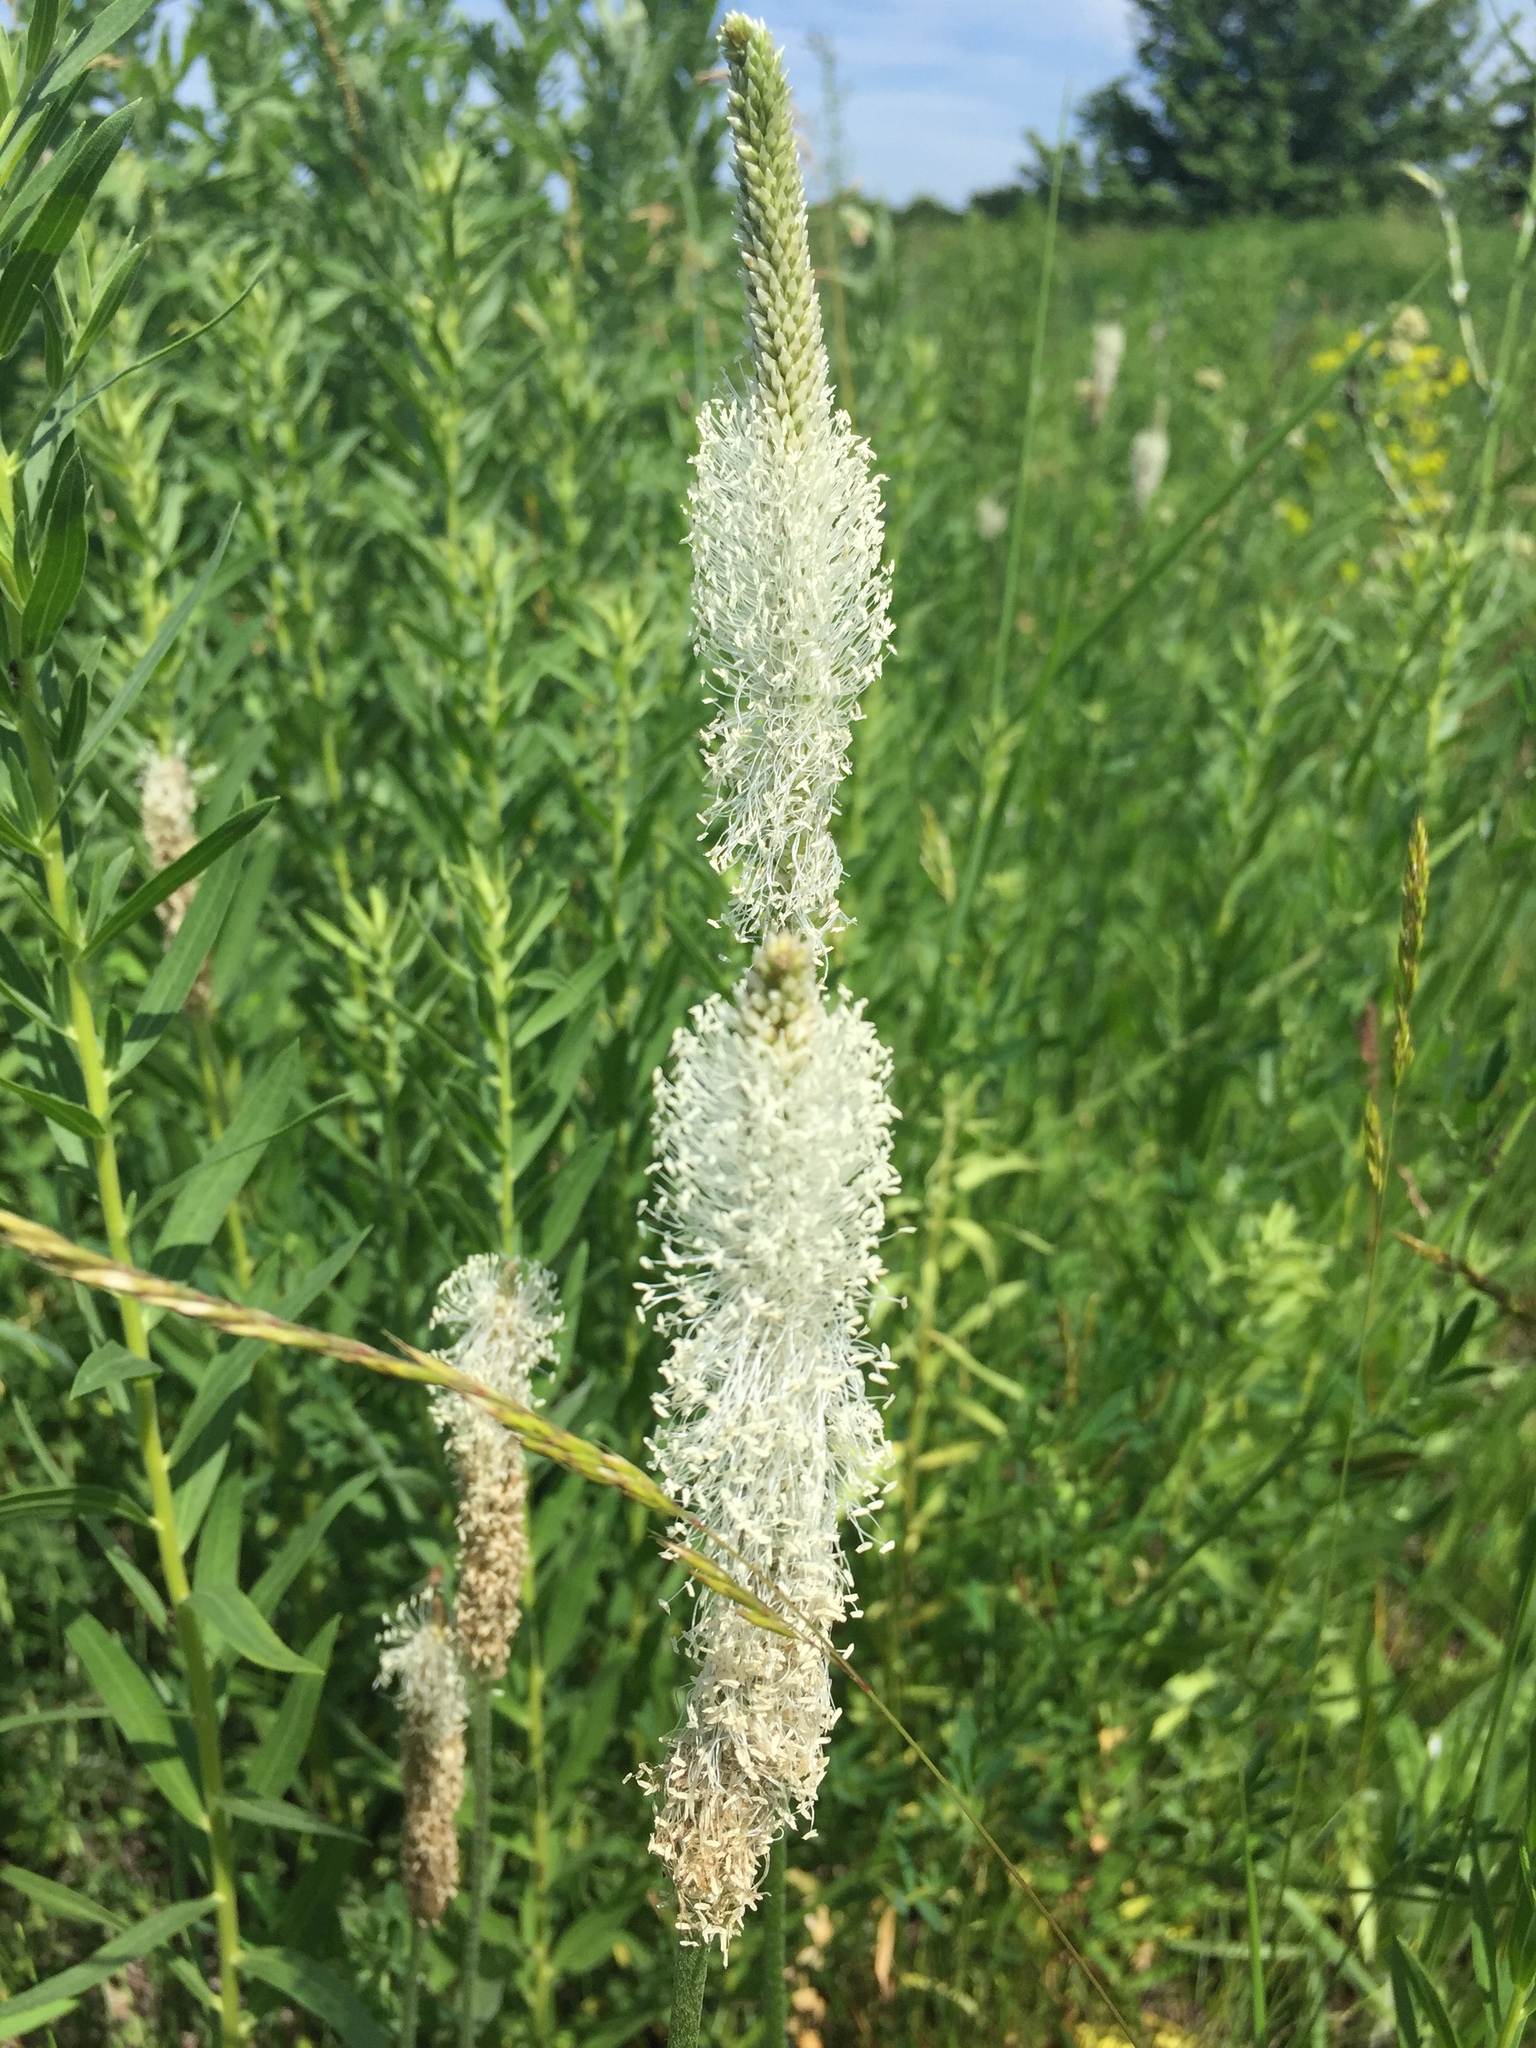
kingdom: Plantae
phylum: Tracheophyta
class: Magnoliopsida
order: Lamiales
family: Plantaginaceae
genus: Plantago
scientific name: Plantago media
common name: Hoary plantain
